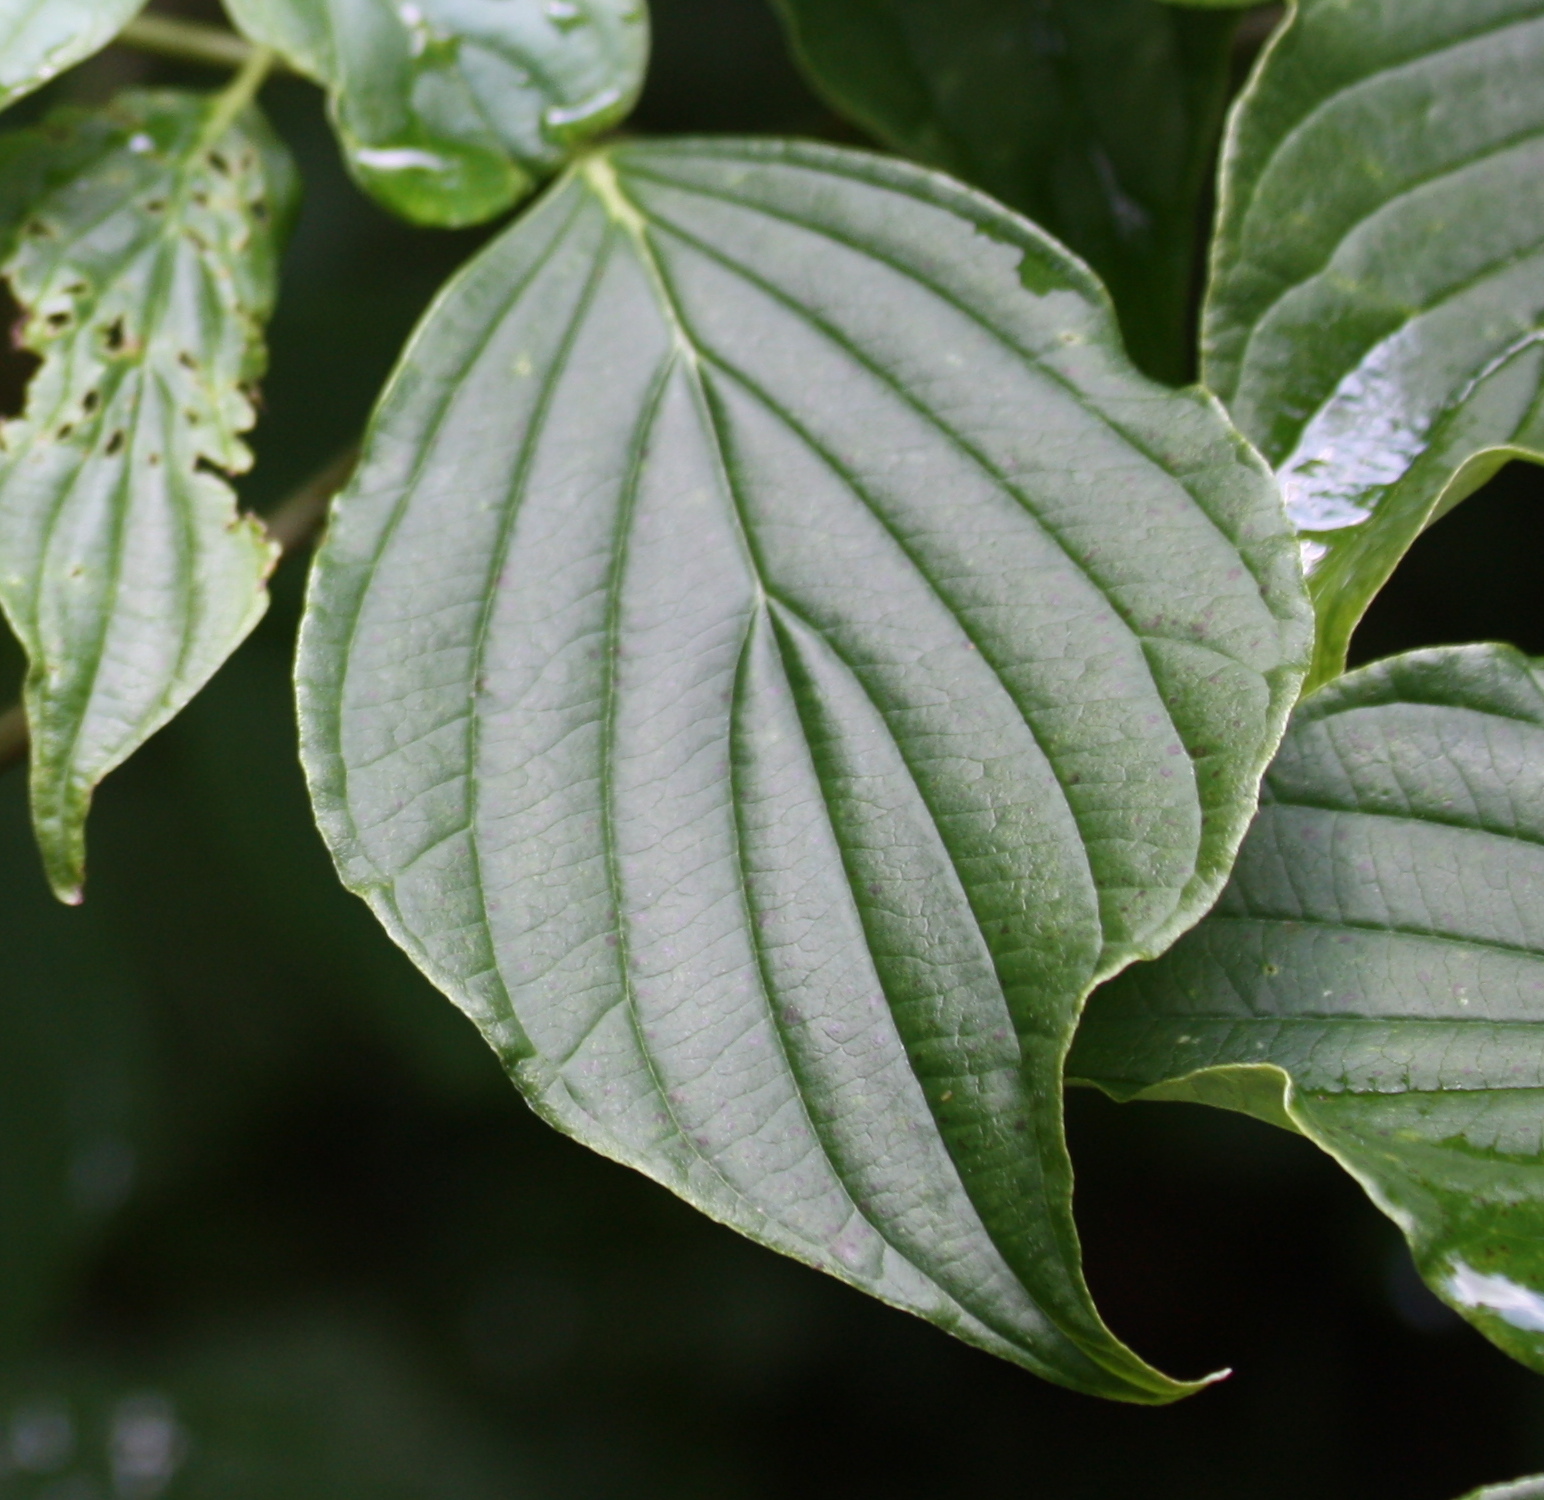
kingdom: Plantae
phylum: Tracheophyta
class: Magnoliopsida
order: Cornales
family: Cornaceae
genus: Cornus
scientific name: Cornus alternifolia
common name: Pagoda dogwood
